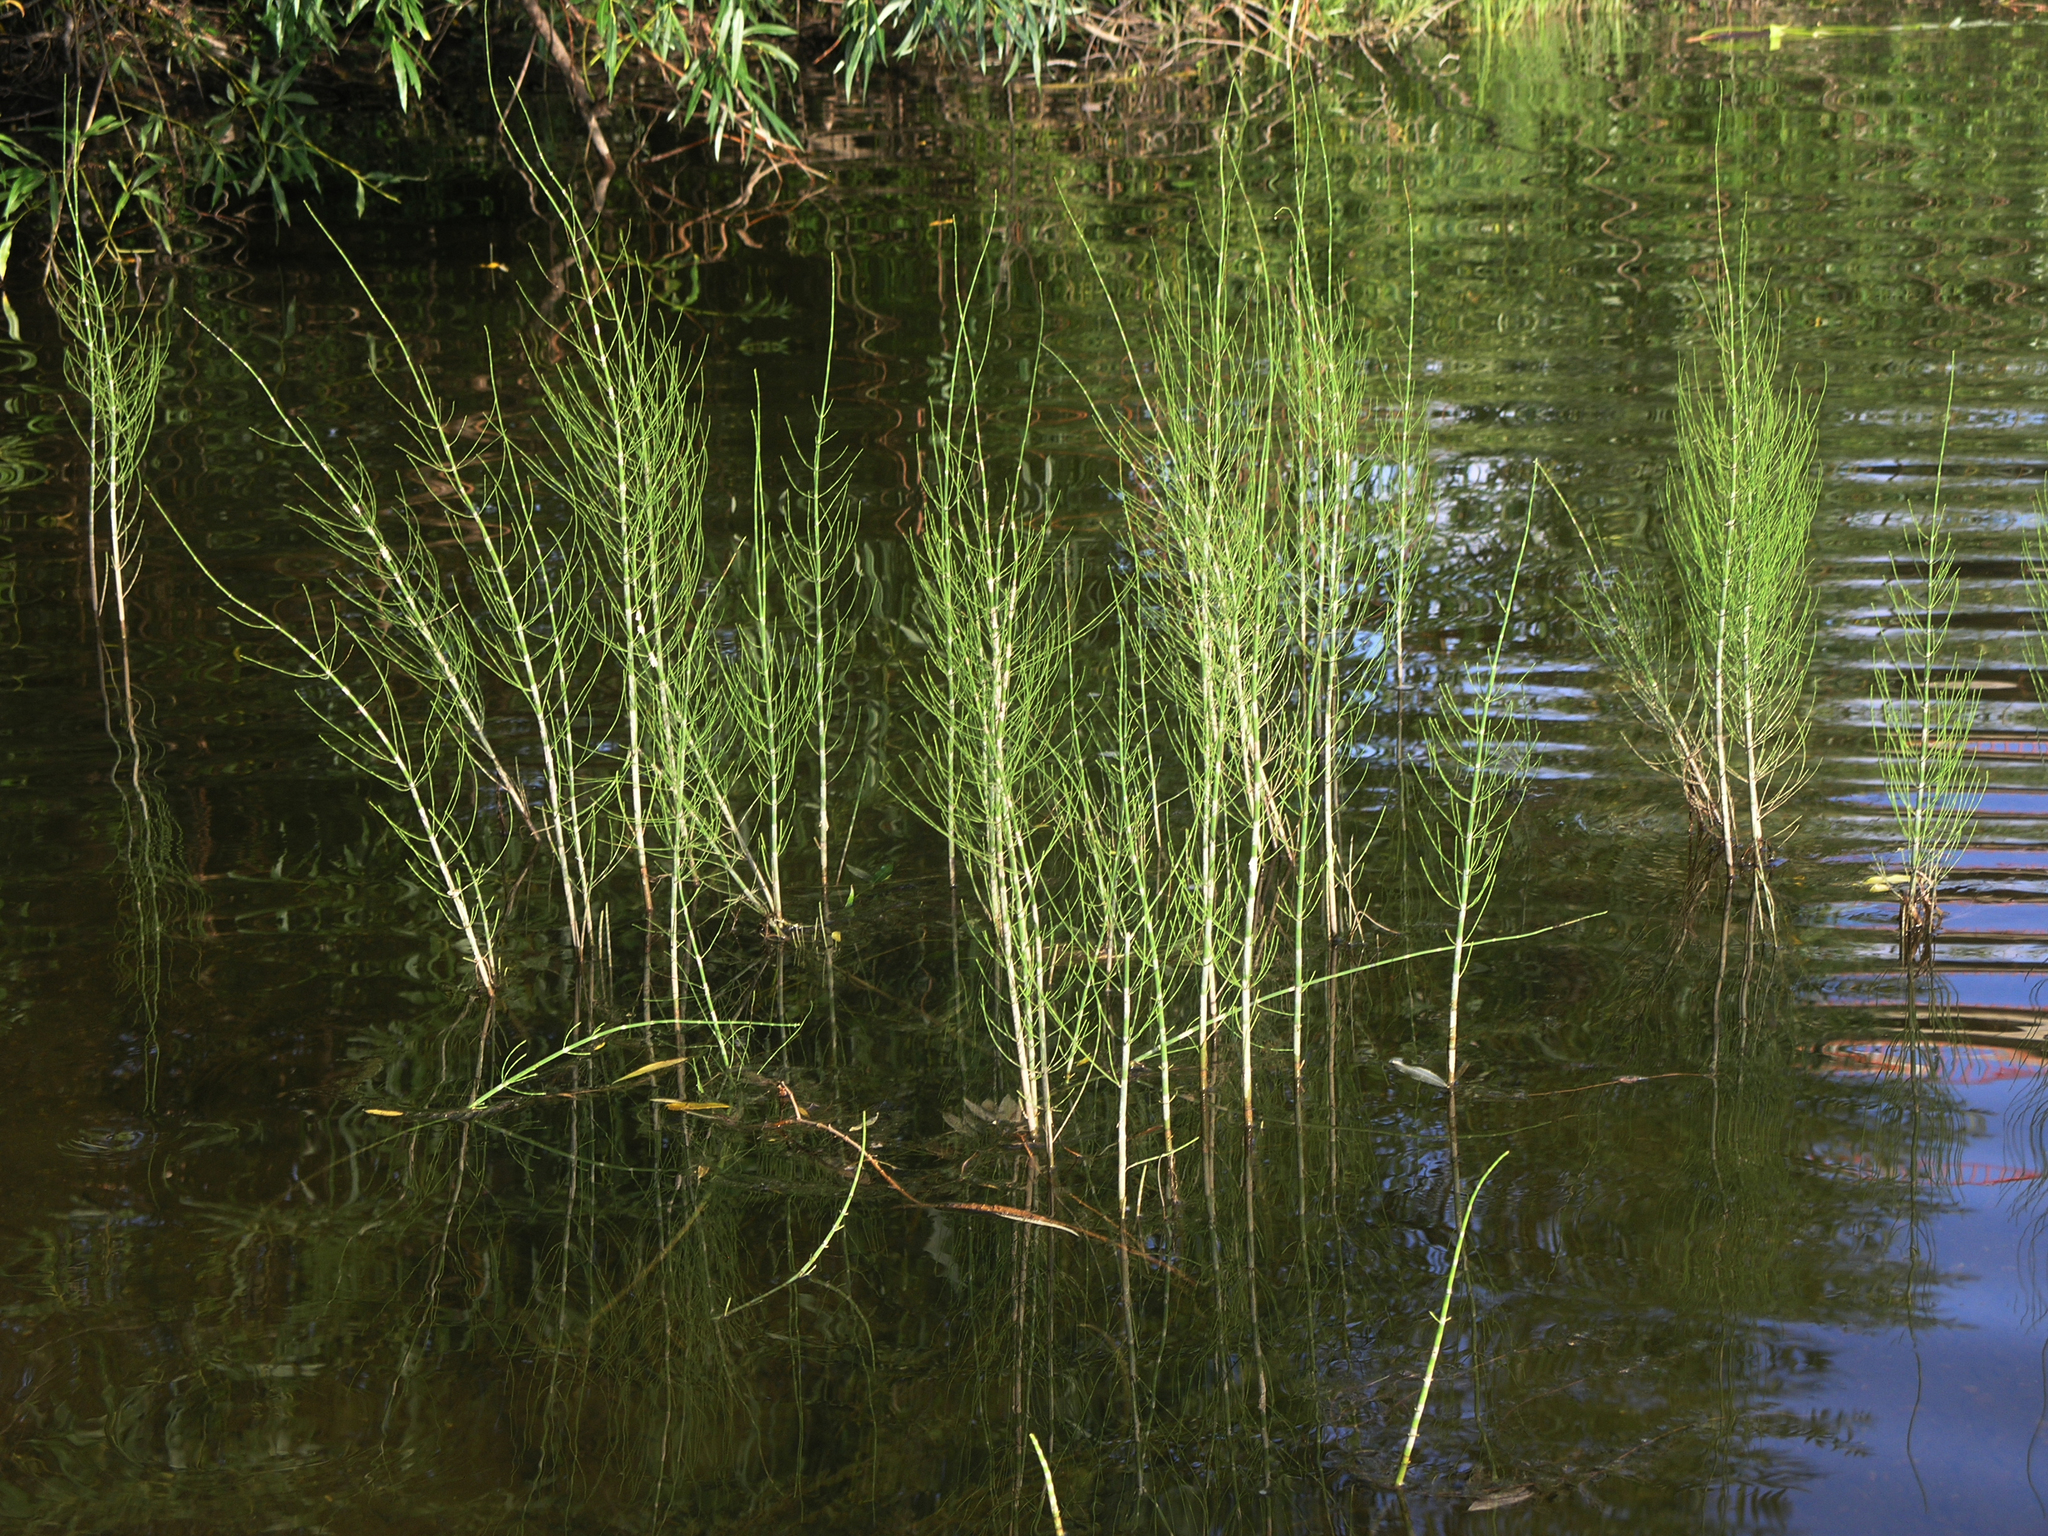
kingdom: Plantae
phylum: Tracheophyta
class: Polypodiopsida
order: Equisetales
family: Equisetaceae
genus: Equisetum
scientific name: Equisetum fluviatile
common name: Water horsetail
